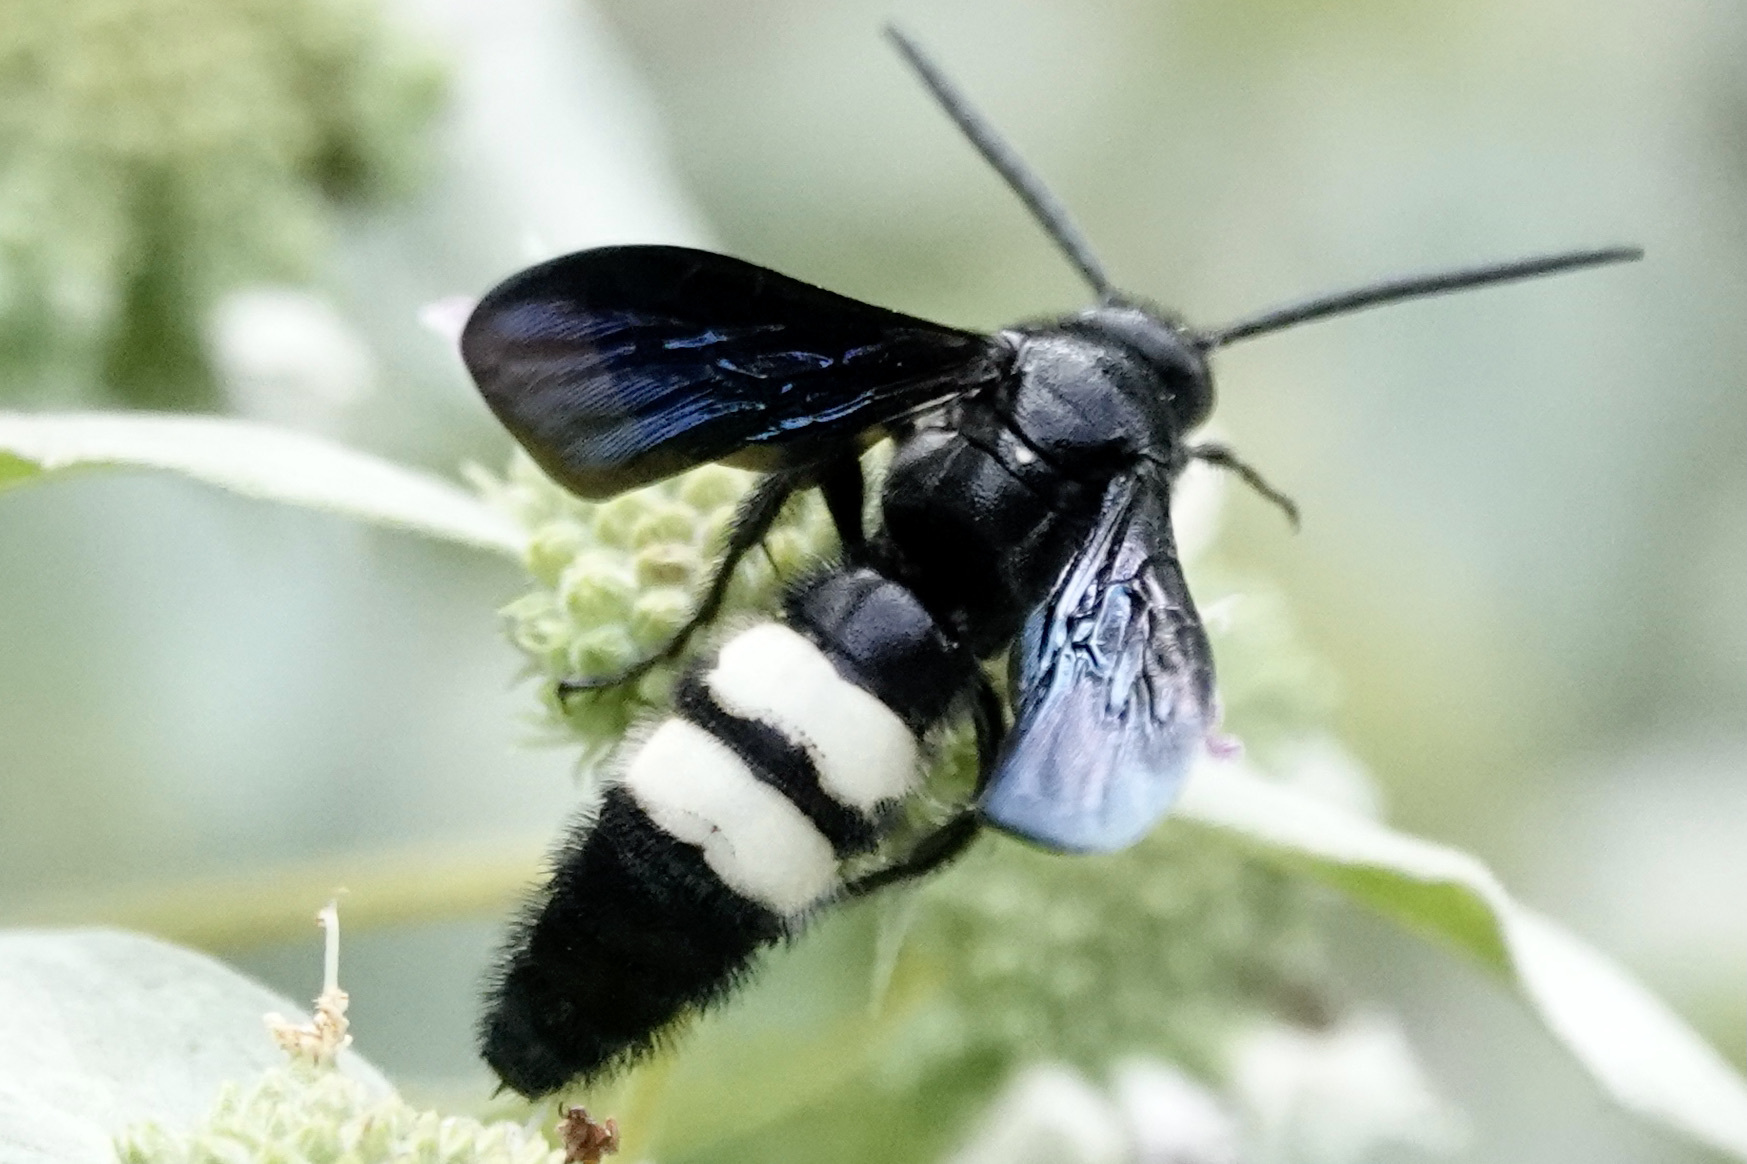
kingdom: Animalia
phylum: Arthropoda
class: Insecta
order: Hymenoptera
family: Scoliidae
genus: Scolia
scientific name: Scolia bicincta
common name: Double-banded scoliid wasp
